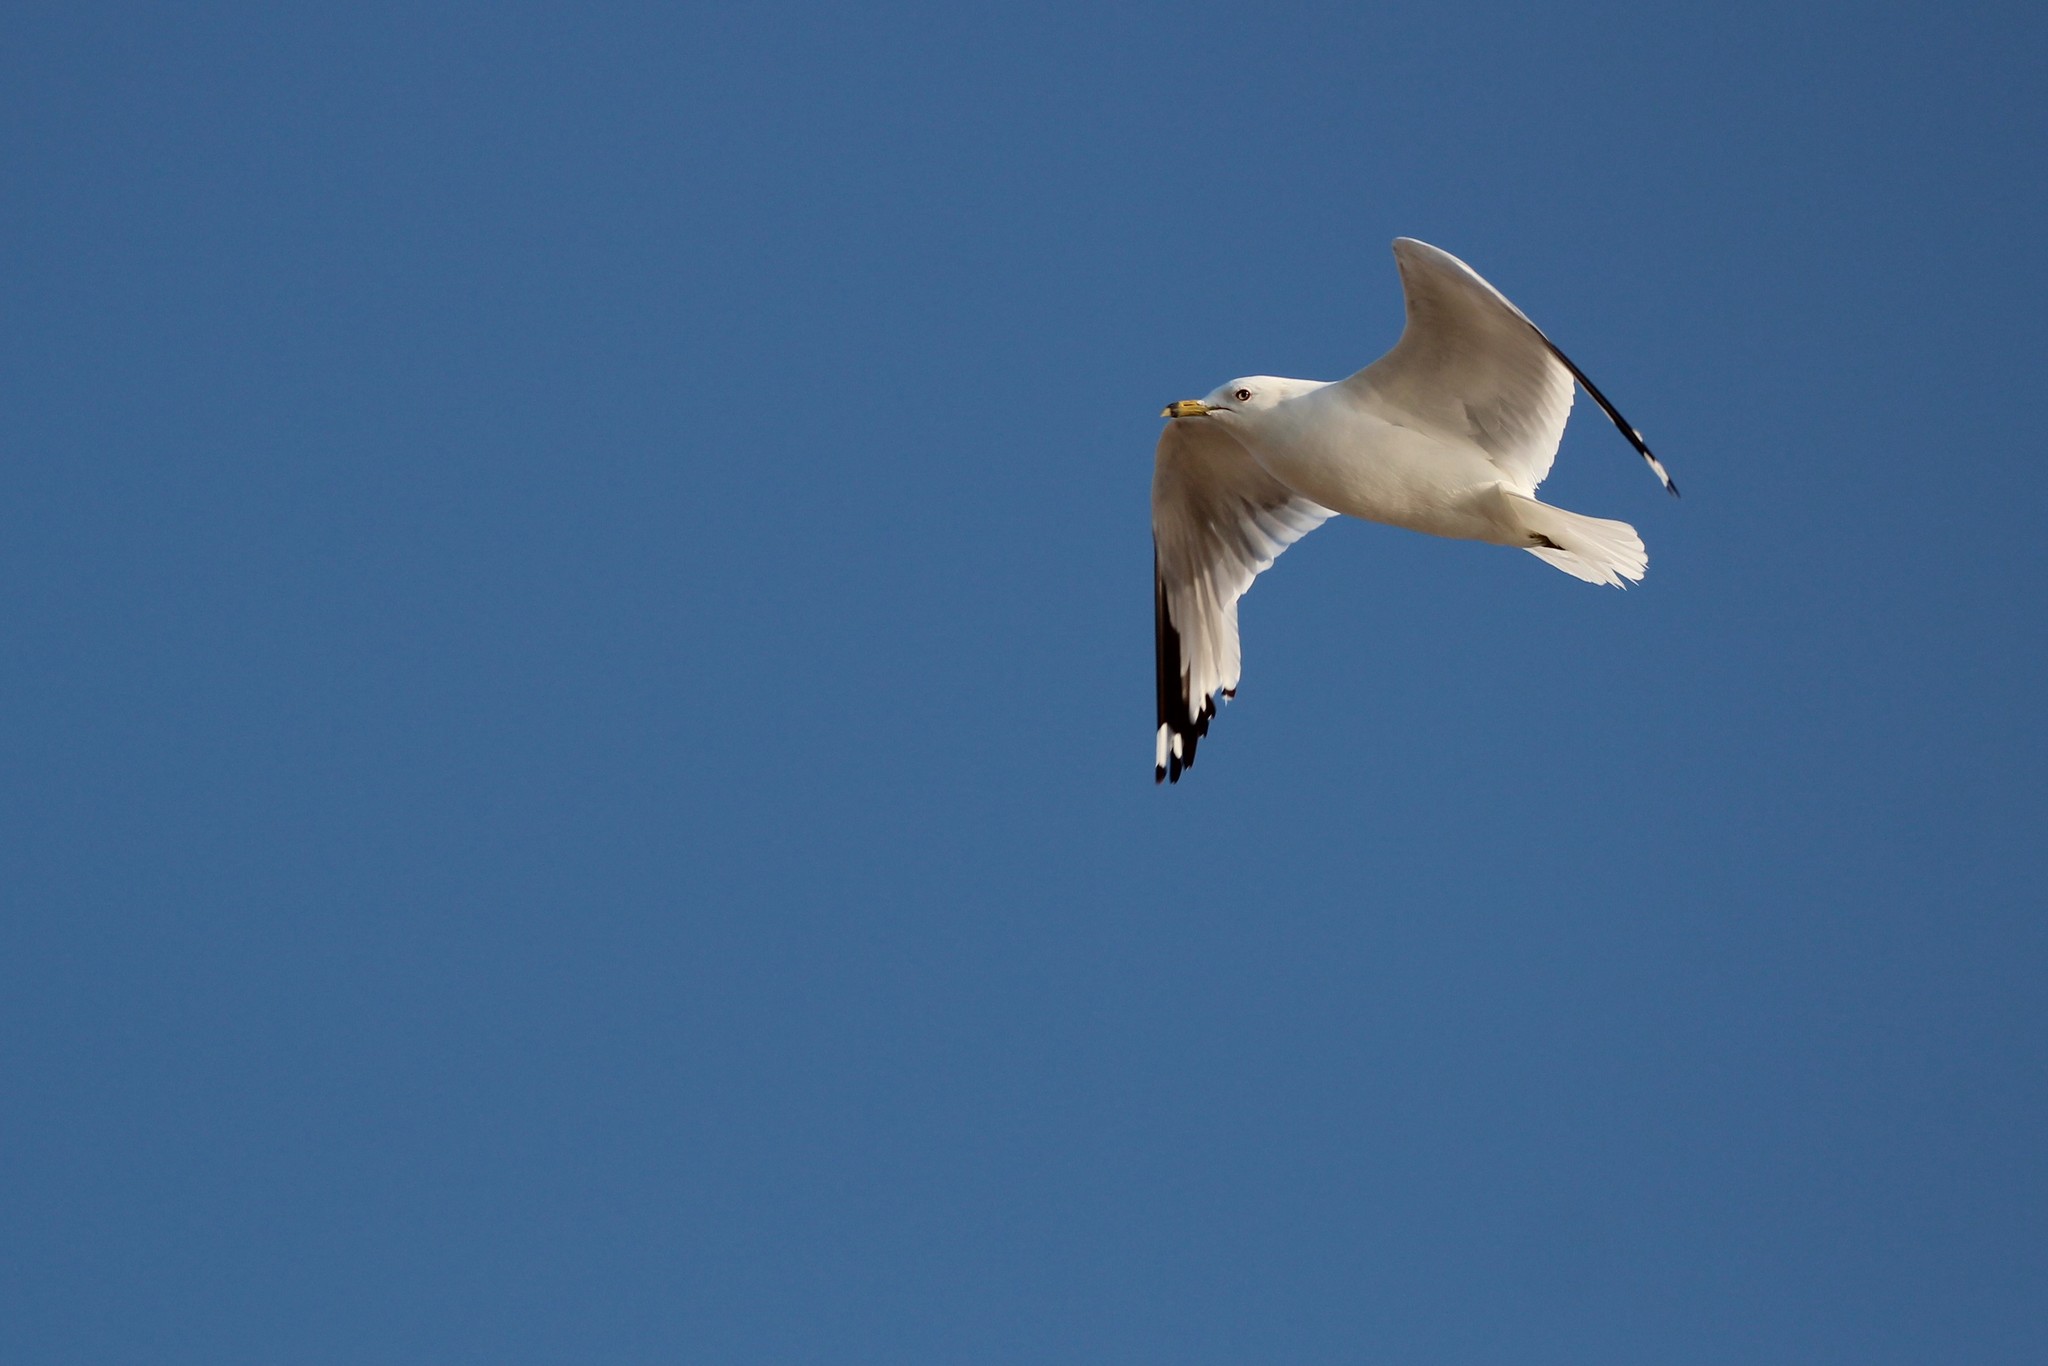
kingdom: Animalia
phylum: Chordata
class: Aves
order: Charadriiformes
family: Laridae
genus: Larus
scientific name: Larus delawarensis
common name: Ring-billed gull
